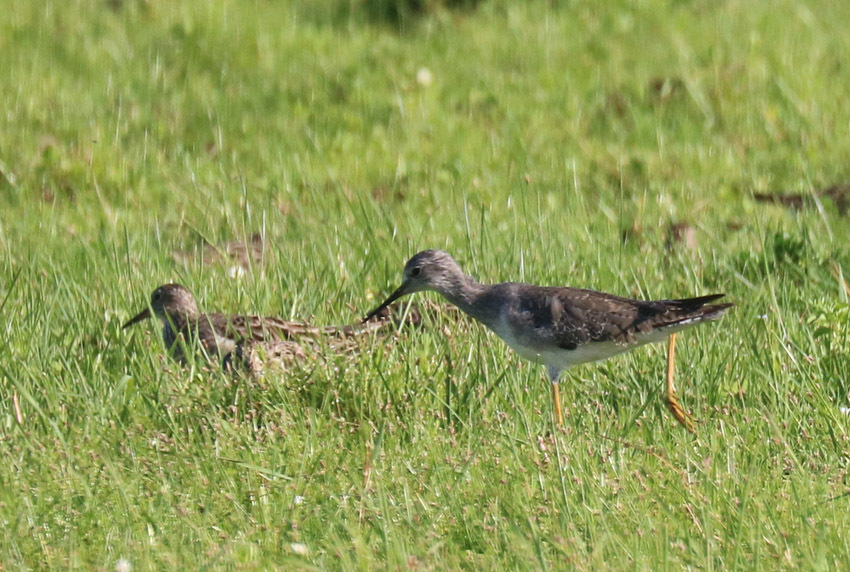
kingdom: Animalia
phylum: Chordata
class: Aves
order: Charadriiformes
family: Scolopacidae
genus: Tringa
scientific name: Tringa flavipes
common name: Lesser yellowlegs
